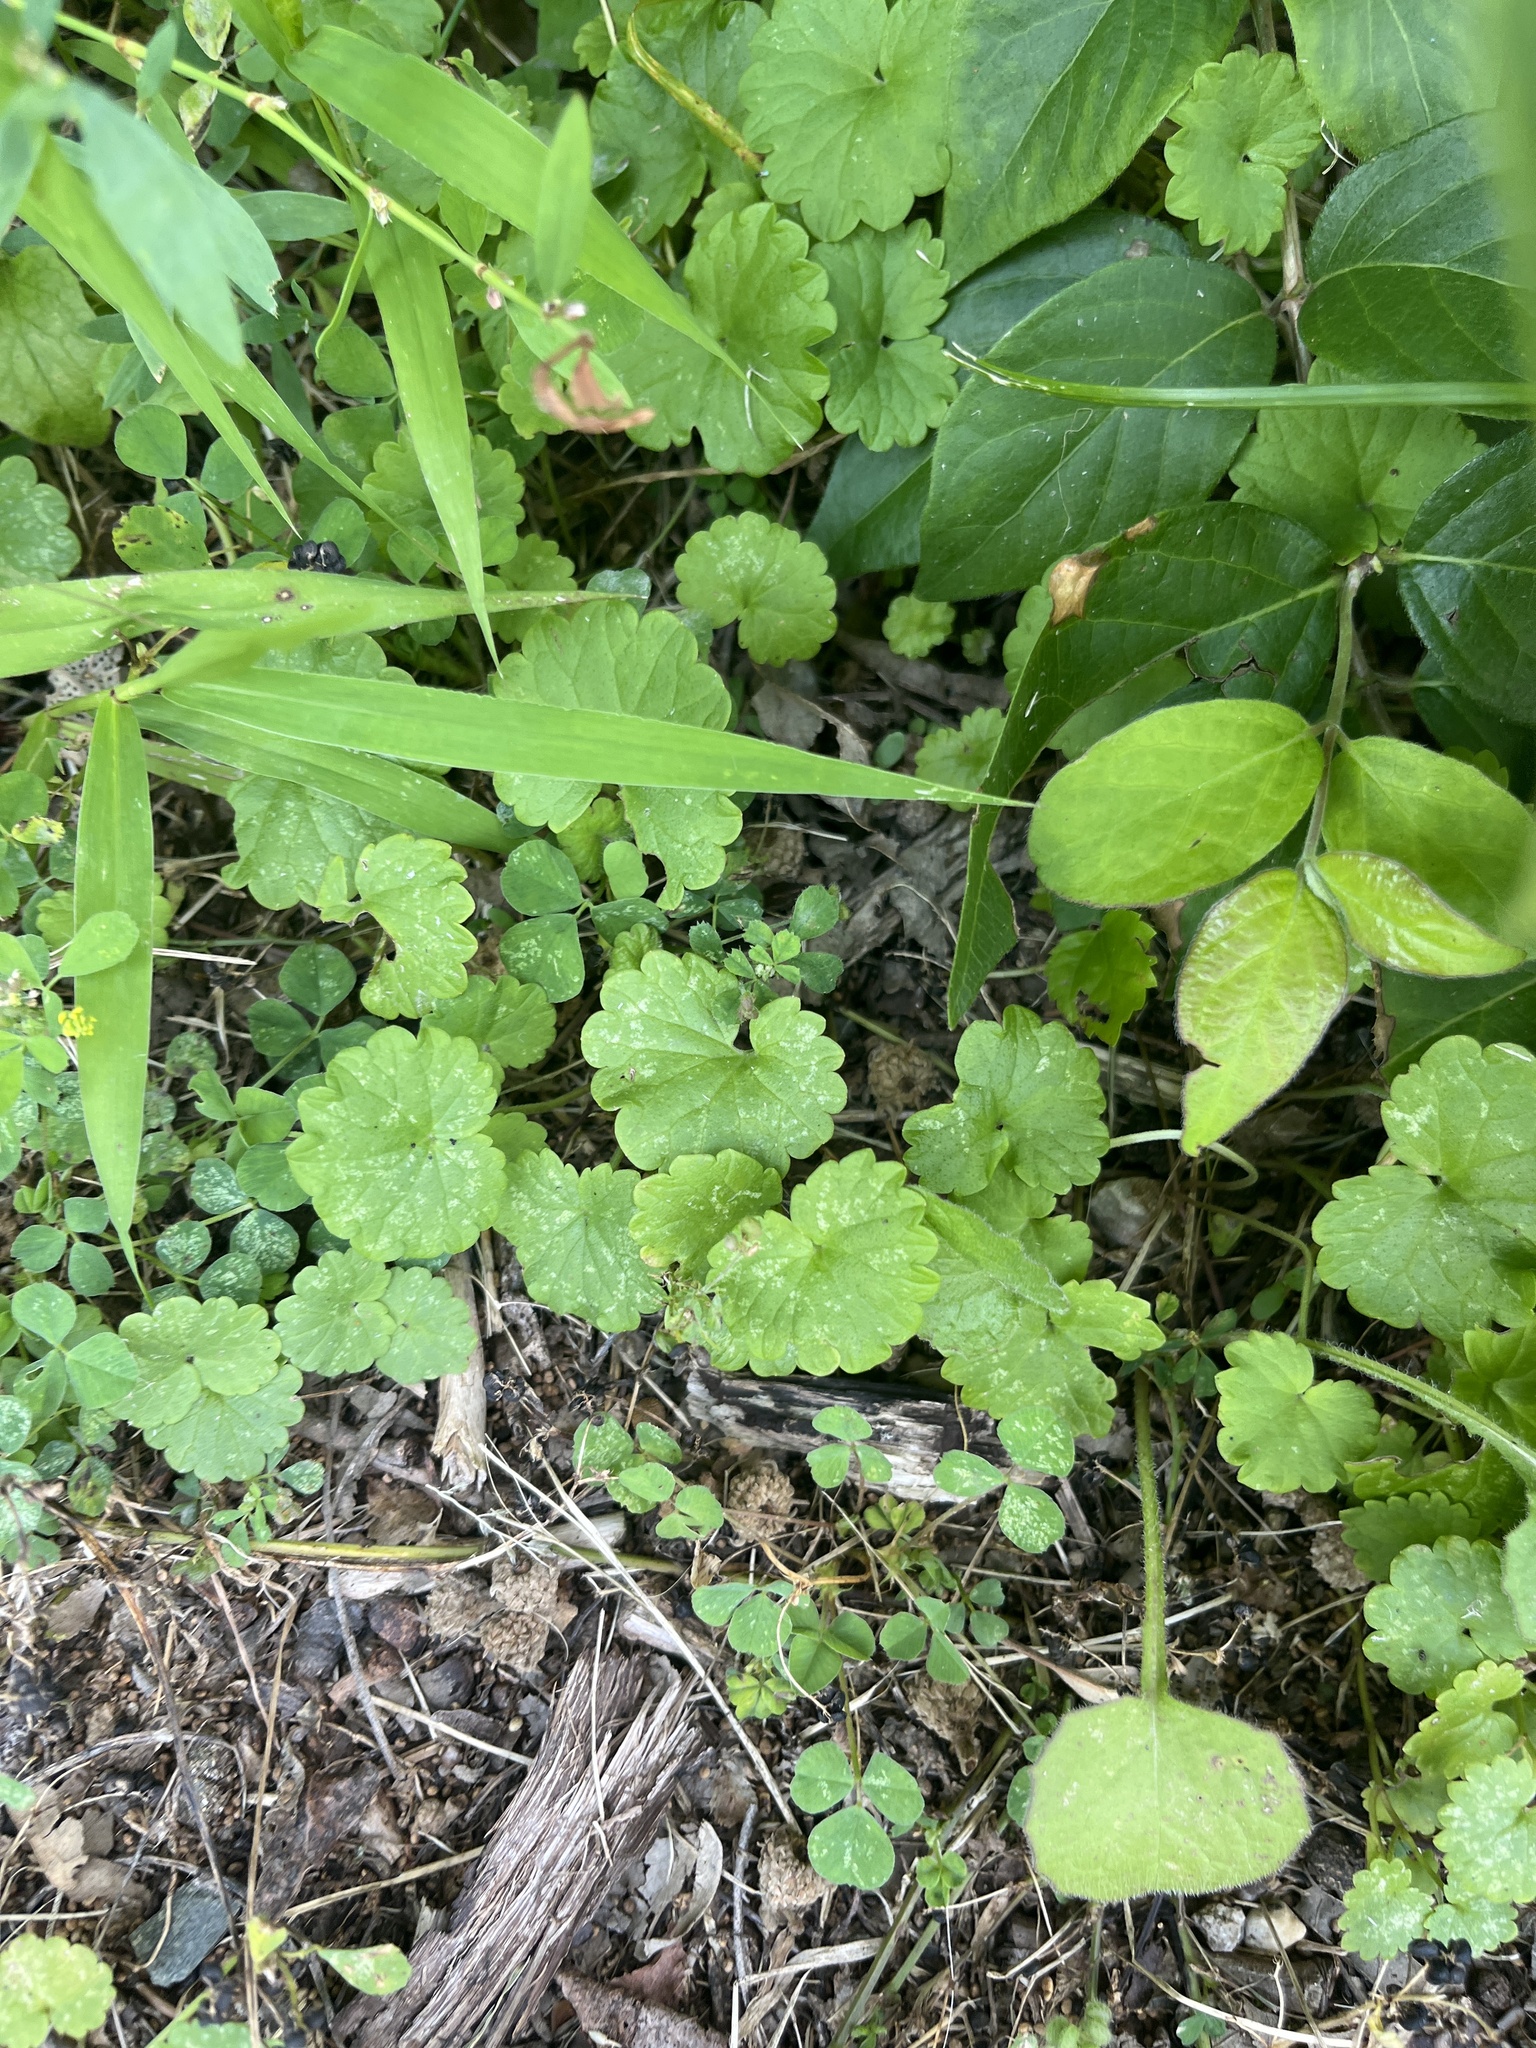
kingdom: Plantae
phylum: Tracheophyta
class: Magnoliopsida
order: Lamiales
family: Lamiaceae
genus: Glechoma
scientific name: Glechoma hederacea
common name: Ground ivy
